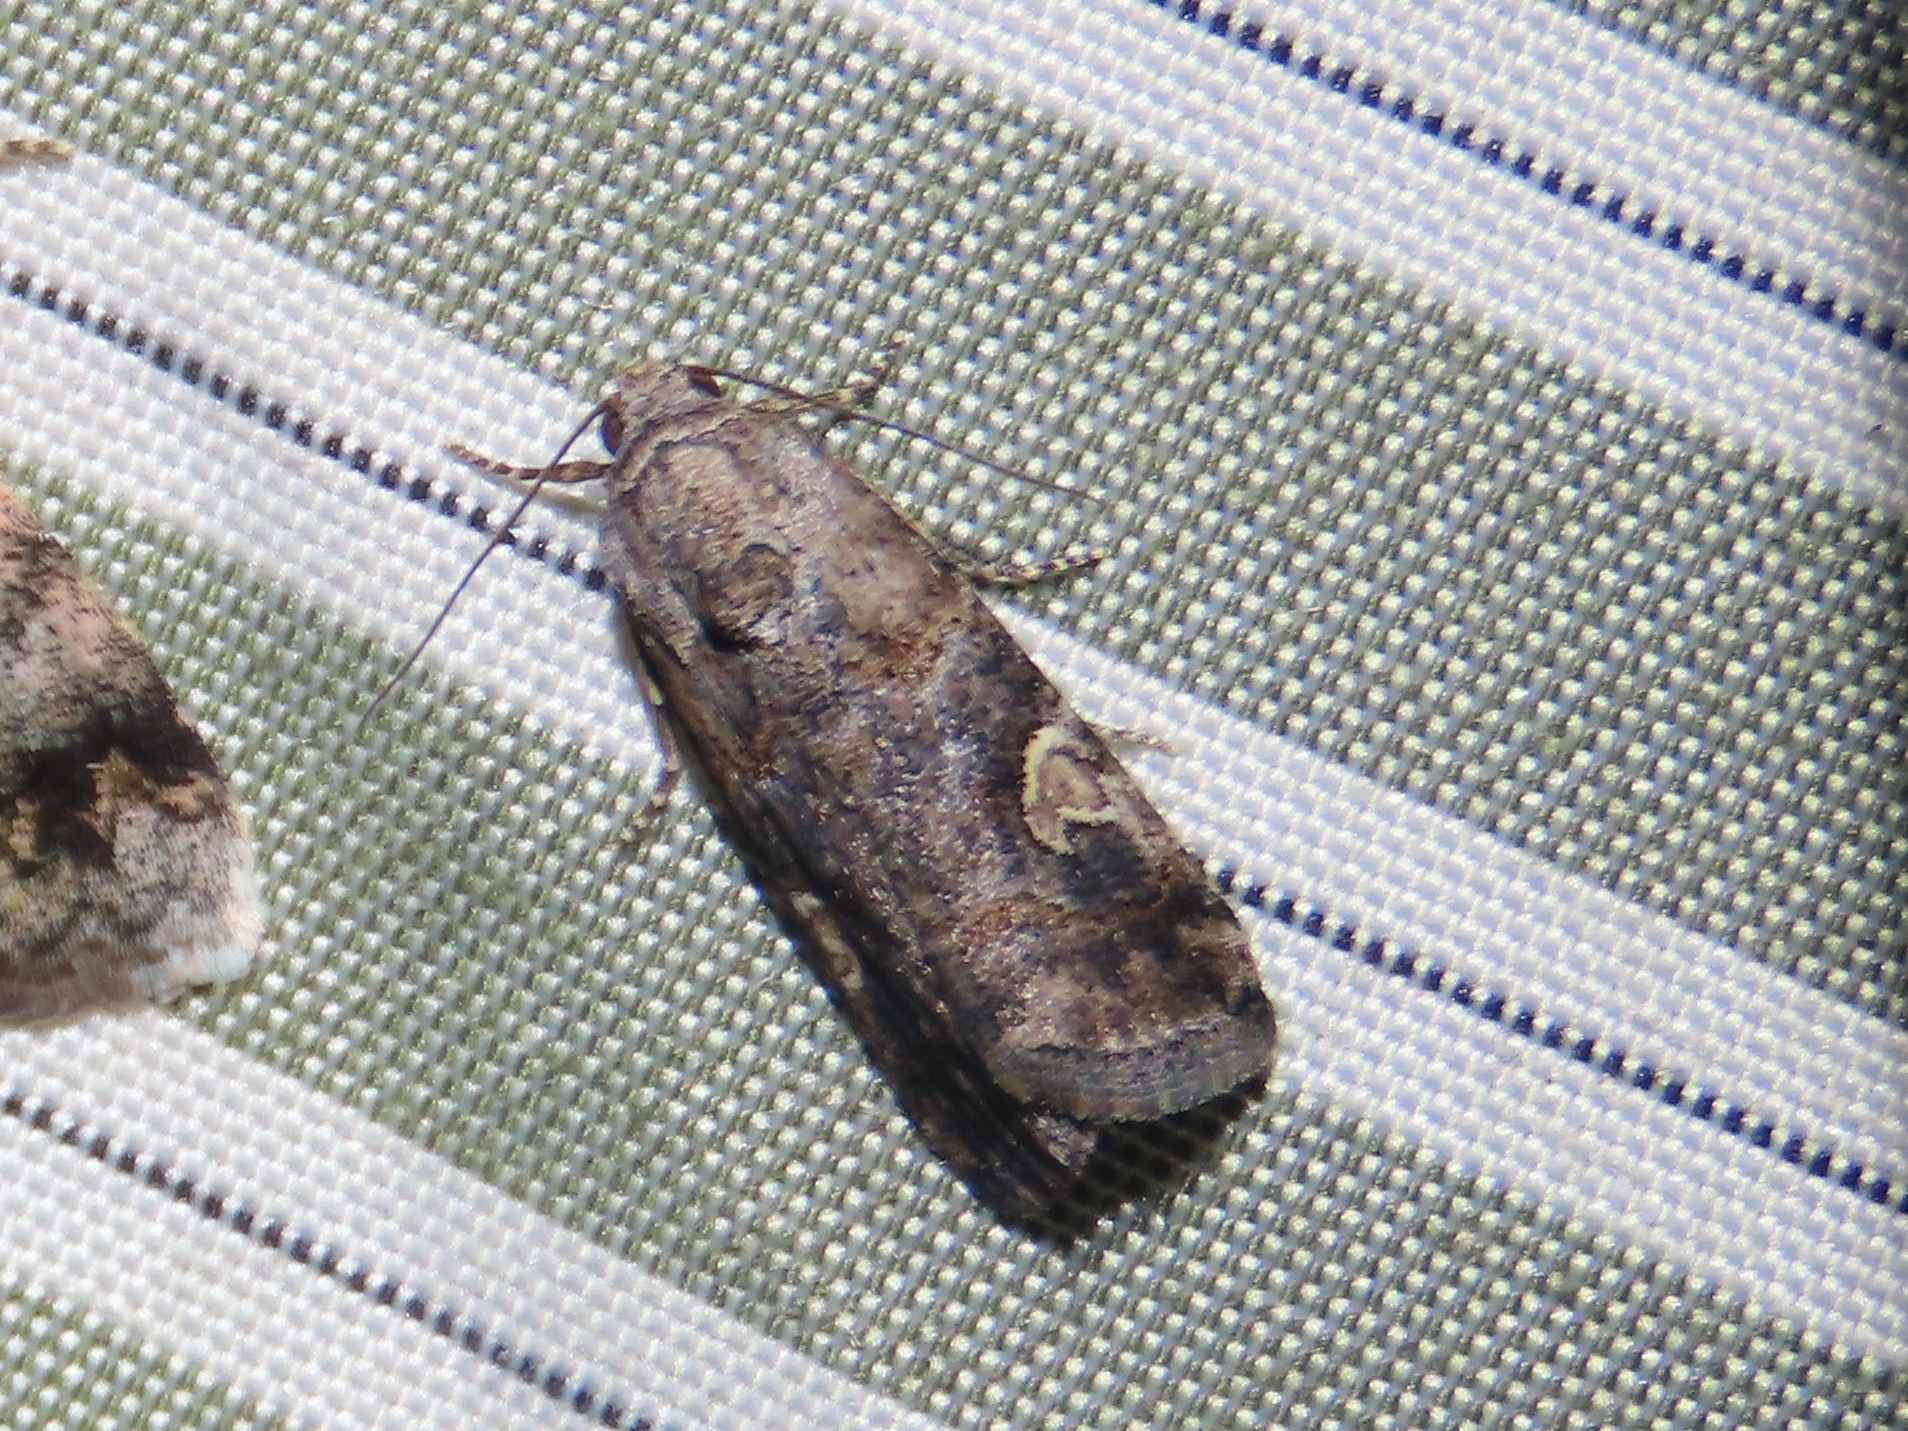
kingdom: Animalia
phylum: Arthropoda
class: Insecta
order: Lepidoptera
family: Noctuidae
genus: Metaponpneumata
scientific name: Metaponpneumata rogenhoferi
